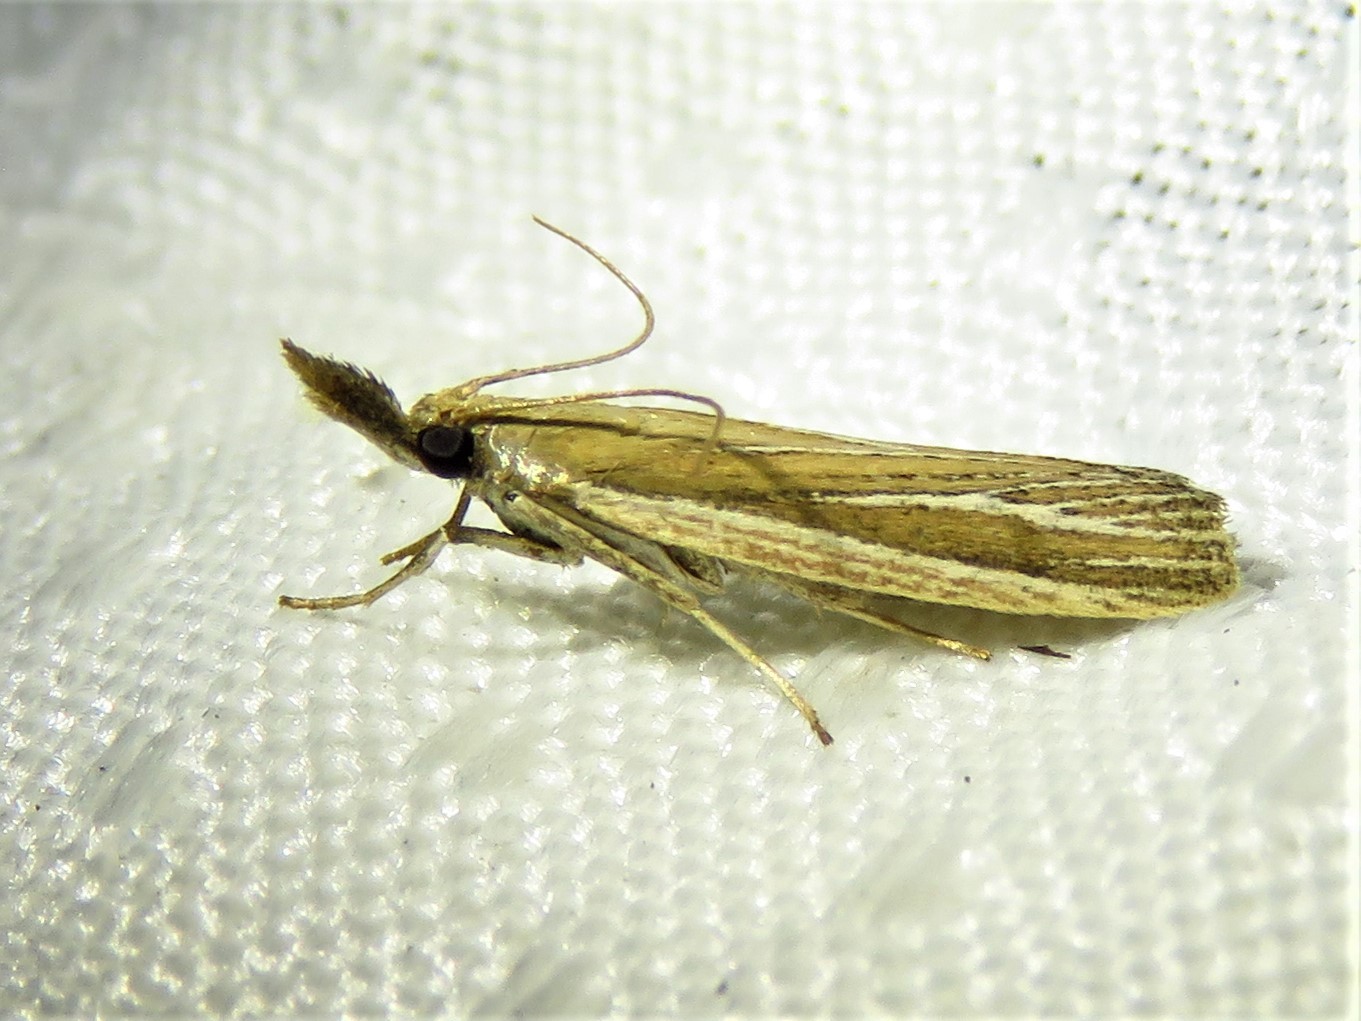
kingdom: Animalia
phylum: Arthropoda
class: Insecta
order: Lepidoptera
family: Pyralidae
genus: Peoria
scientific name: Peoria tetradella
